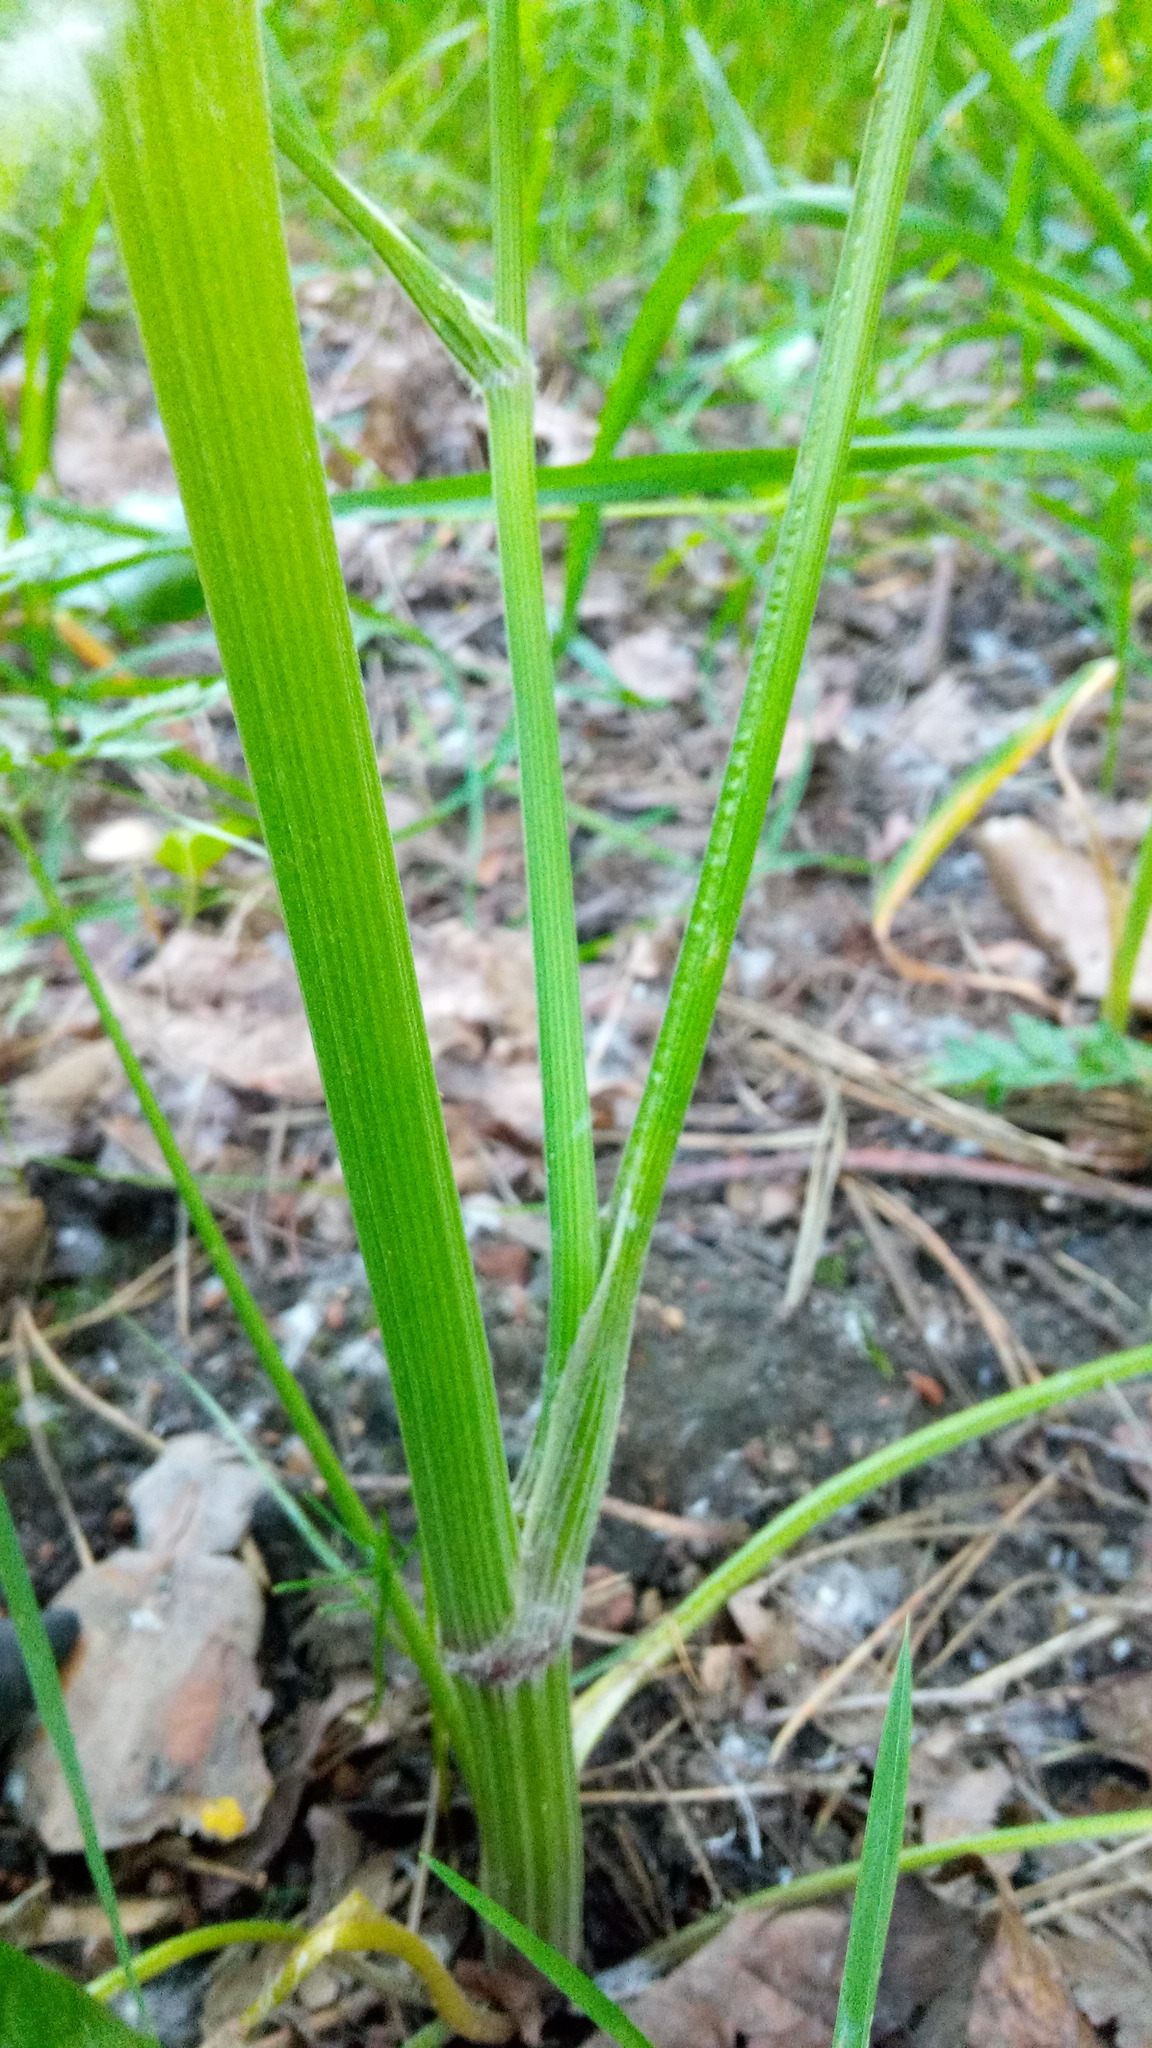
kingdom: Plantae
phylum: Tracheophyta
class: Magnoliopsida
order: Apiales
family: Apiaceae
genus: Anthriscus
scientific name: Anthriscus sylvestris
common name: Cow parsley
